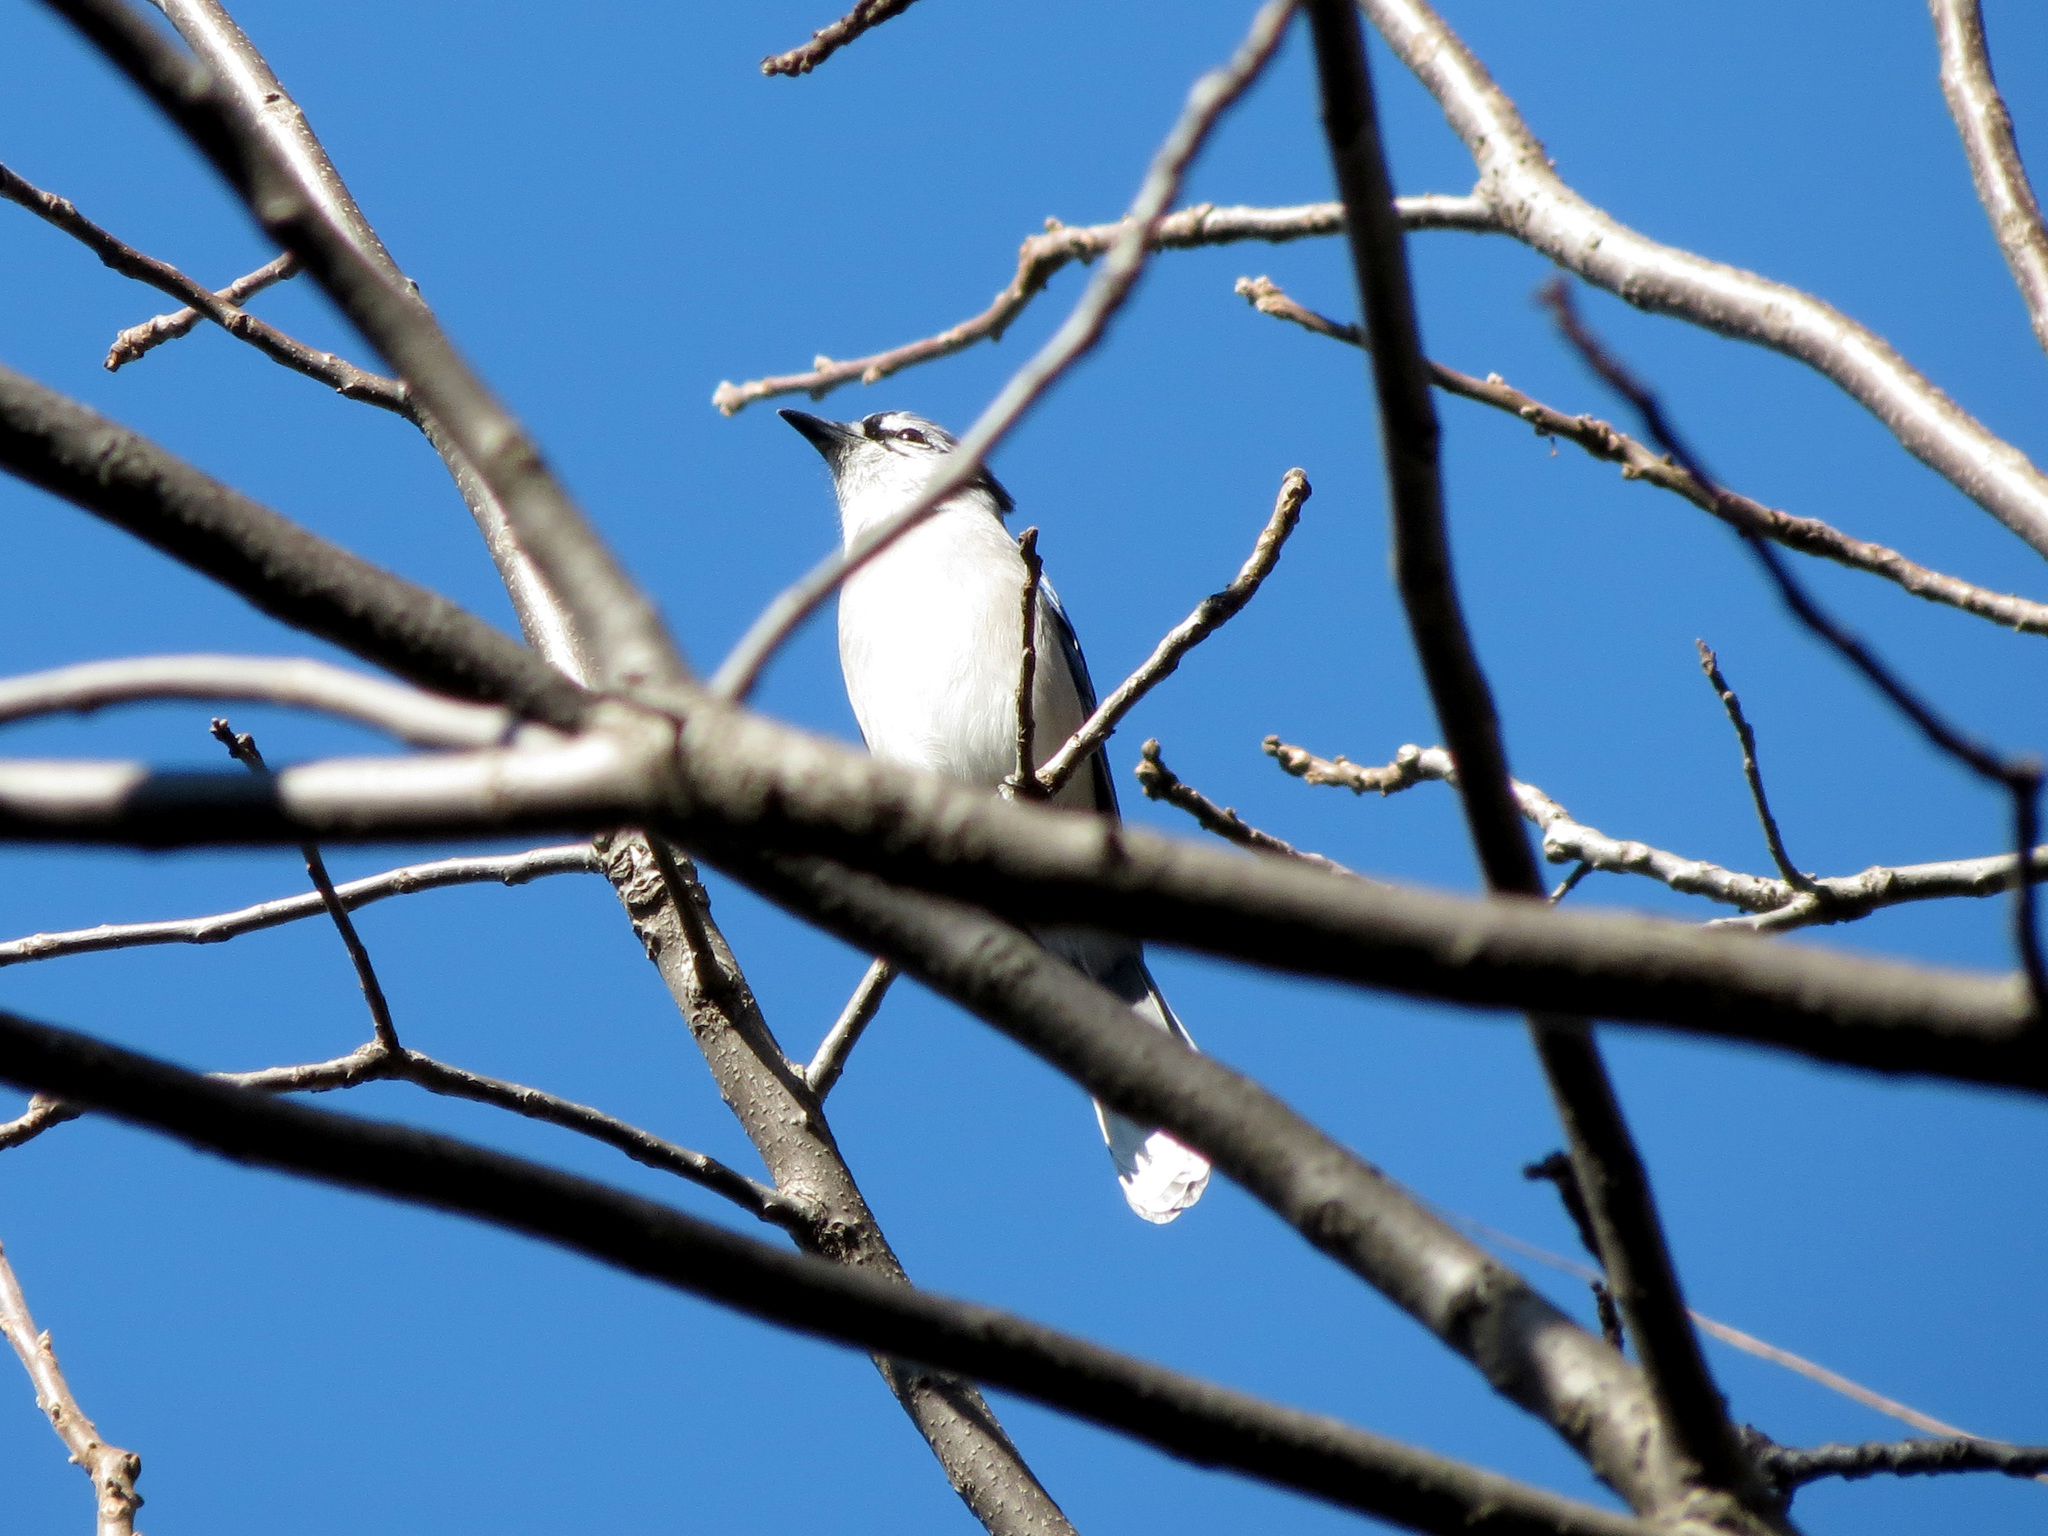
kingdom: Animalia
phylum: Chordata
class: Aves
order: Passeriformes
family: Corvidae
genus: Cyanocitta
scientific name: Cyanocitta cristata
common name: Blue jay
